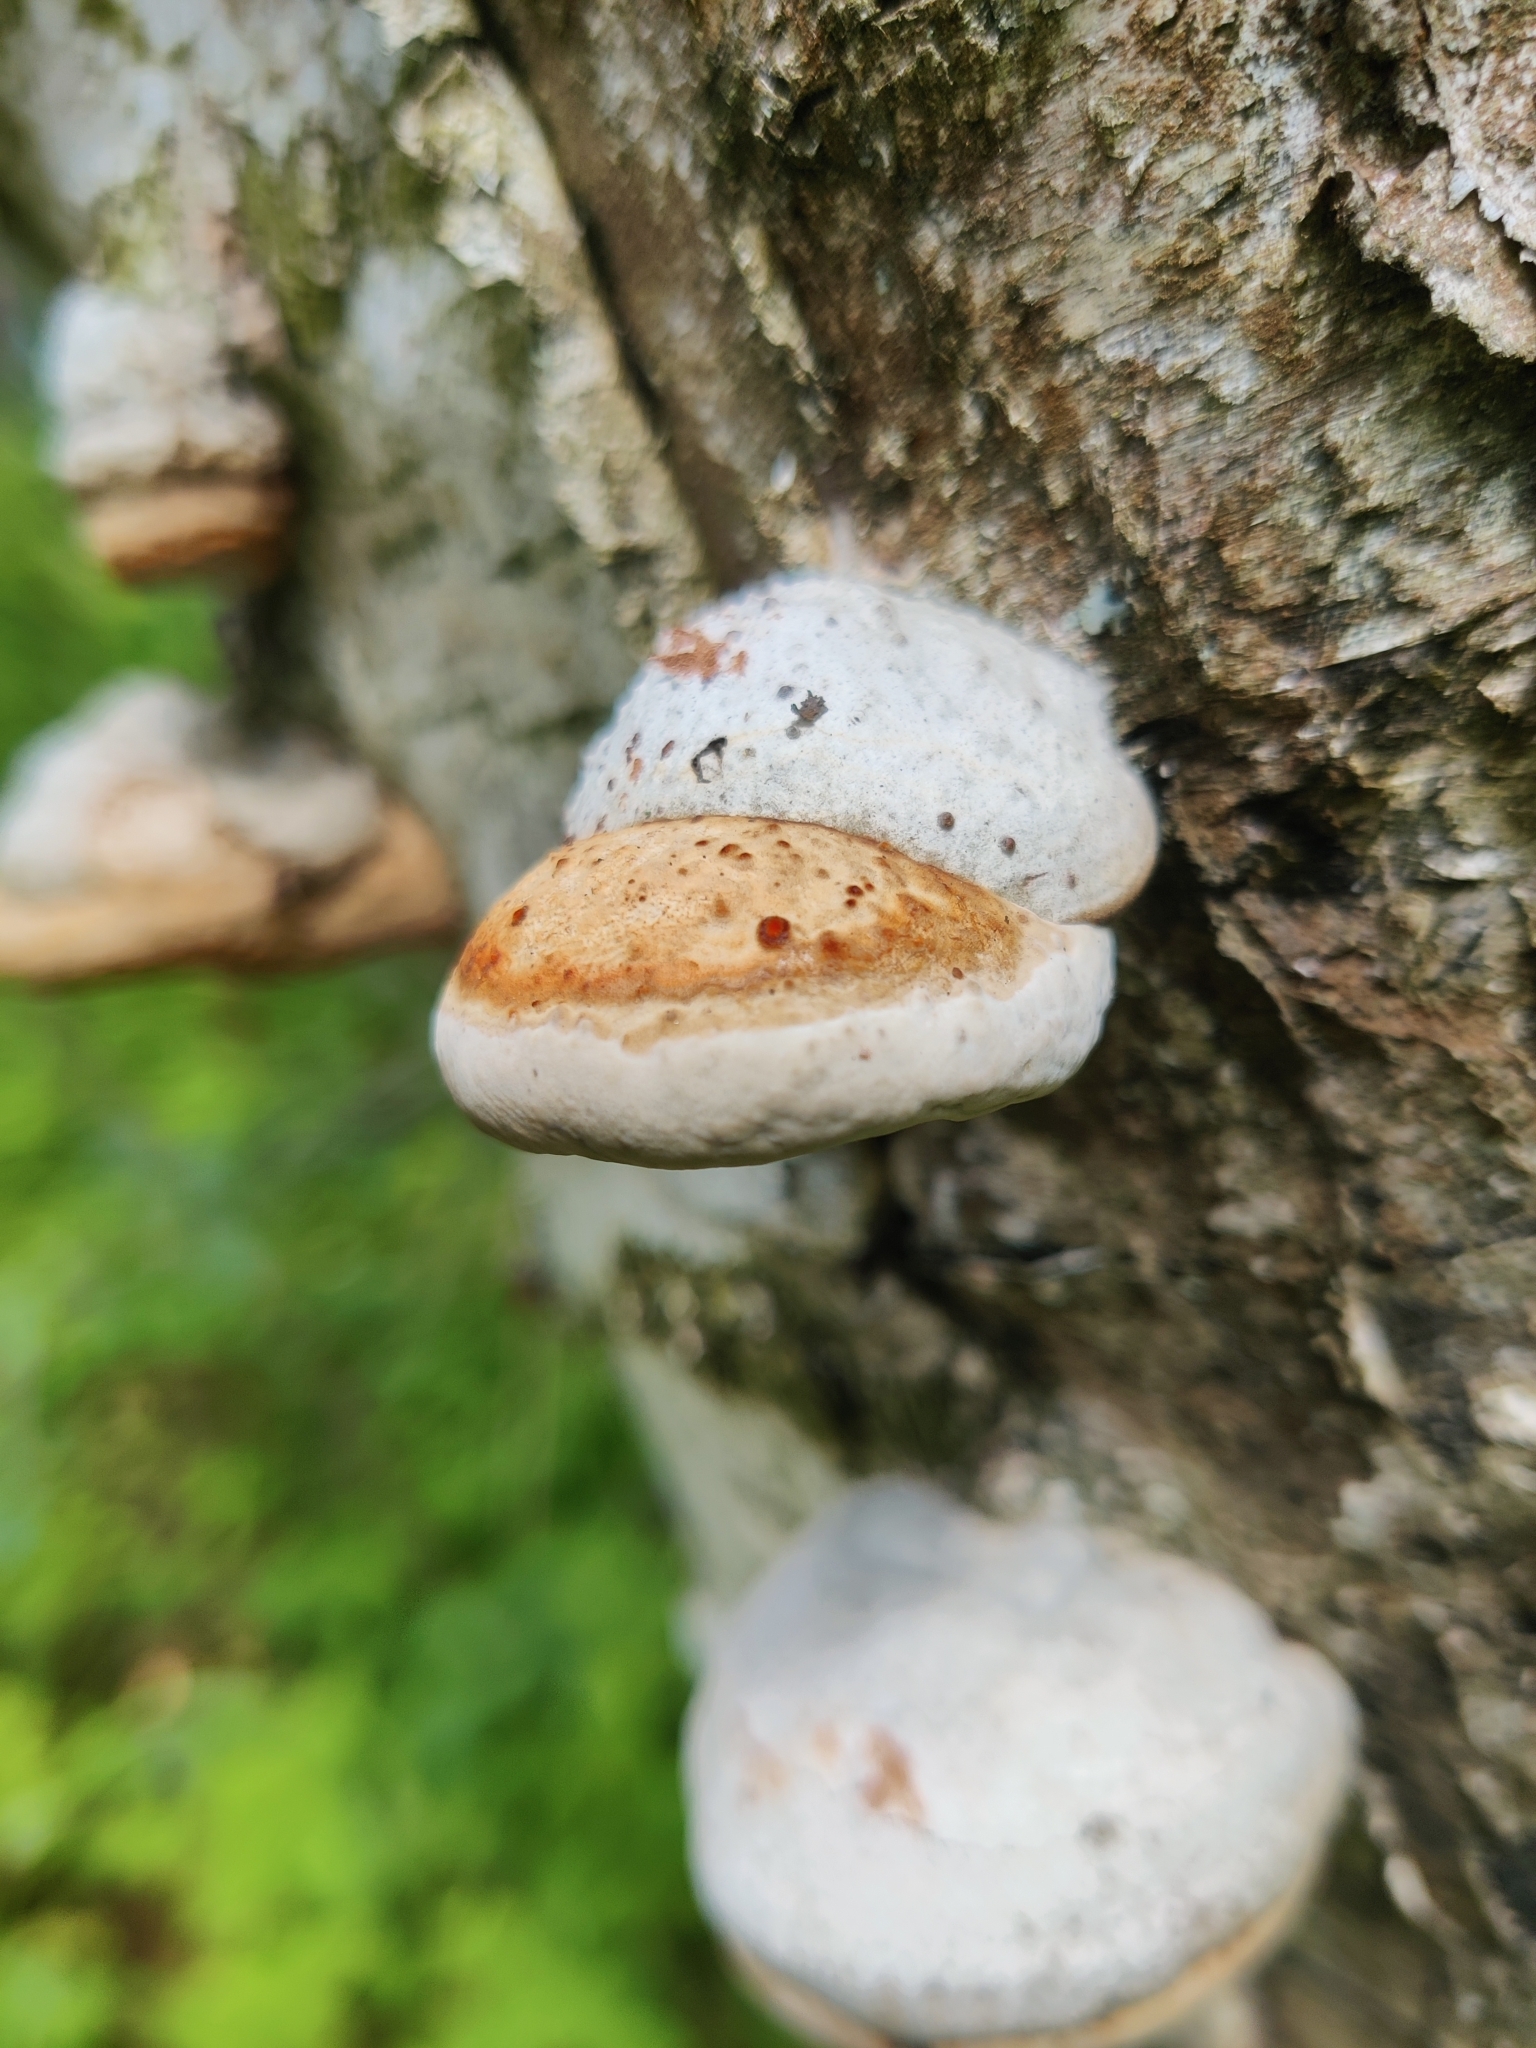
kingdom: Fungi
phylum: Basidiomycota
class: Agaricomycetes
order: Polyporales
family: Polyporaceae
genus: Fomes
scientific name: Fomes fomentarius
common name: Hoof fungus
